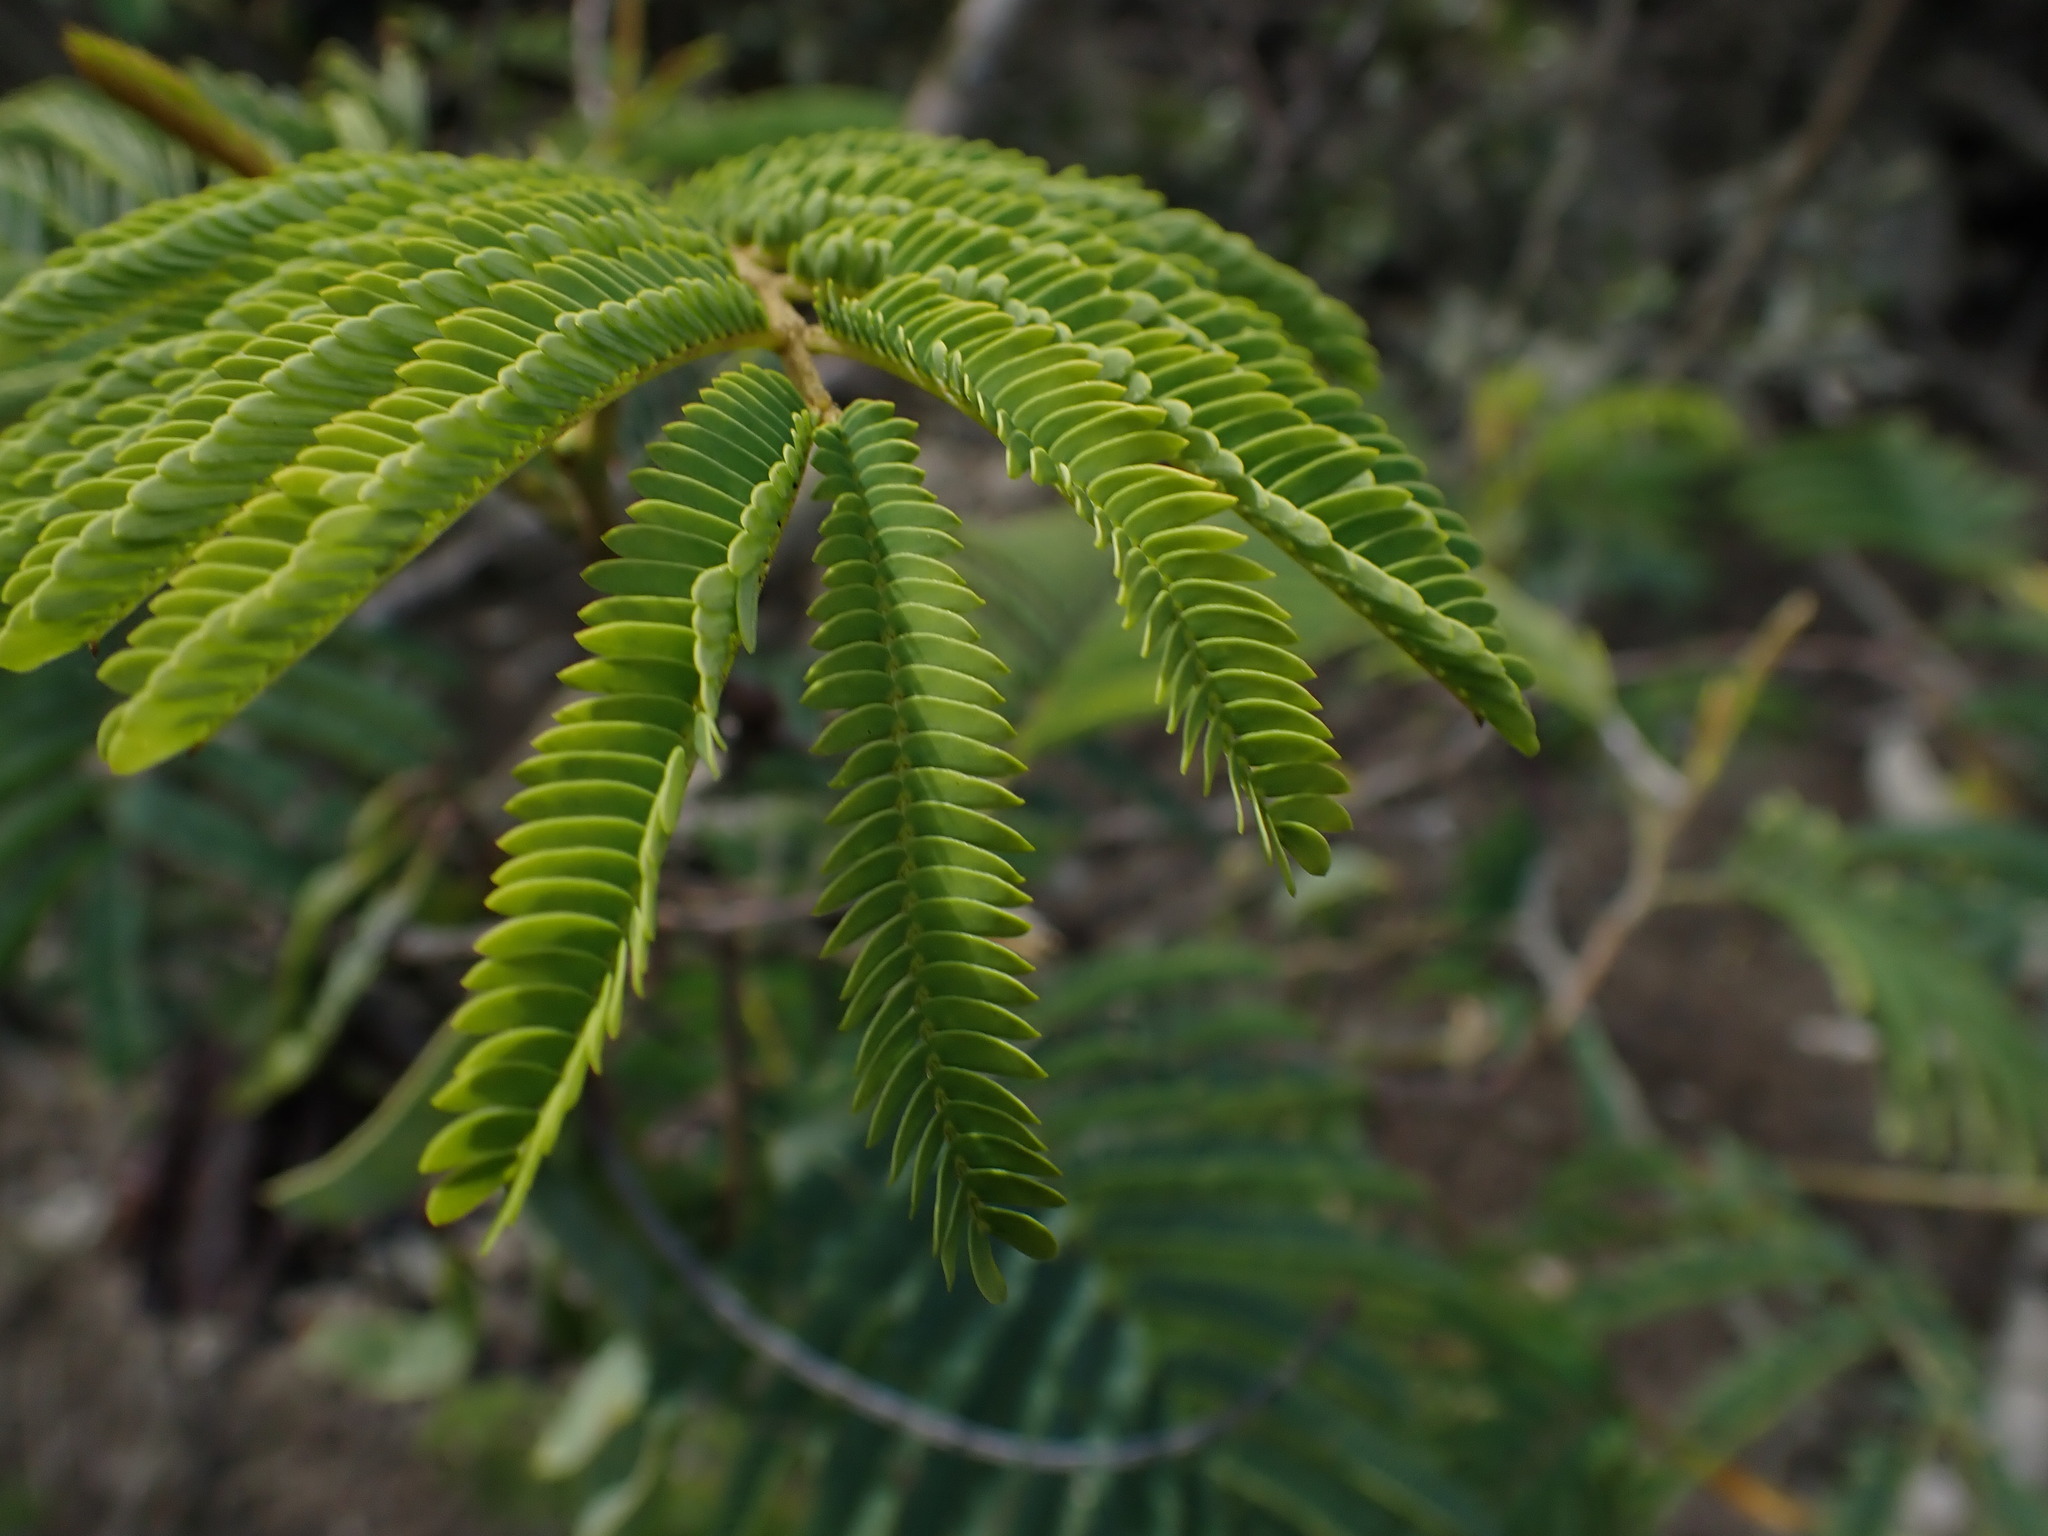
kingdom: Plantae
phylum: Tracheophyta
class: Magnoliopsida
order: Fabales
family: Fabaceae
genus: Albizia
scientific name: Albizia julibrissin
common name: Silktree
